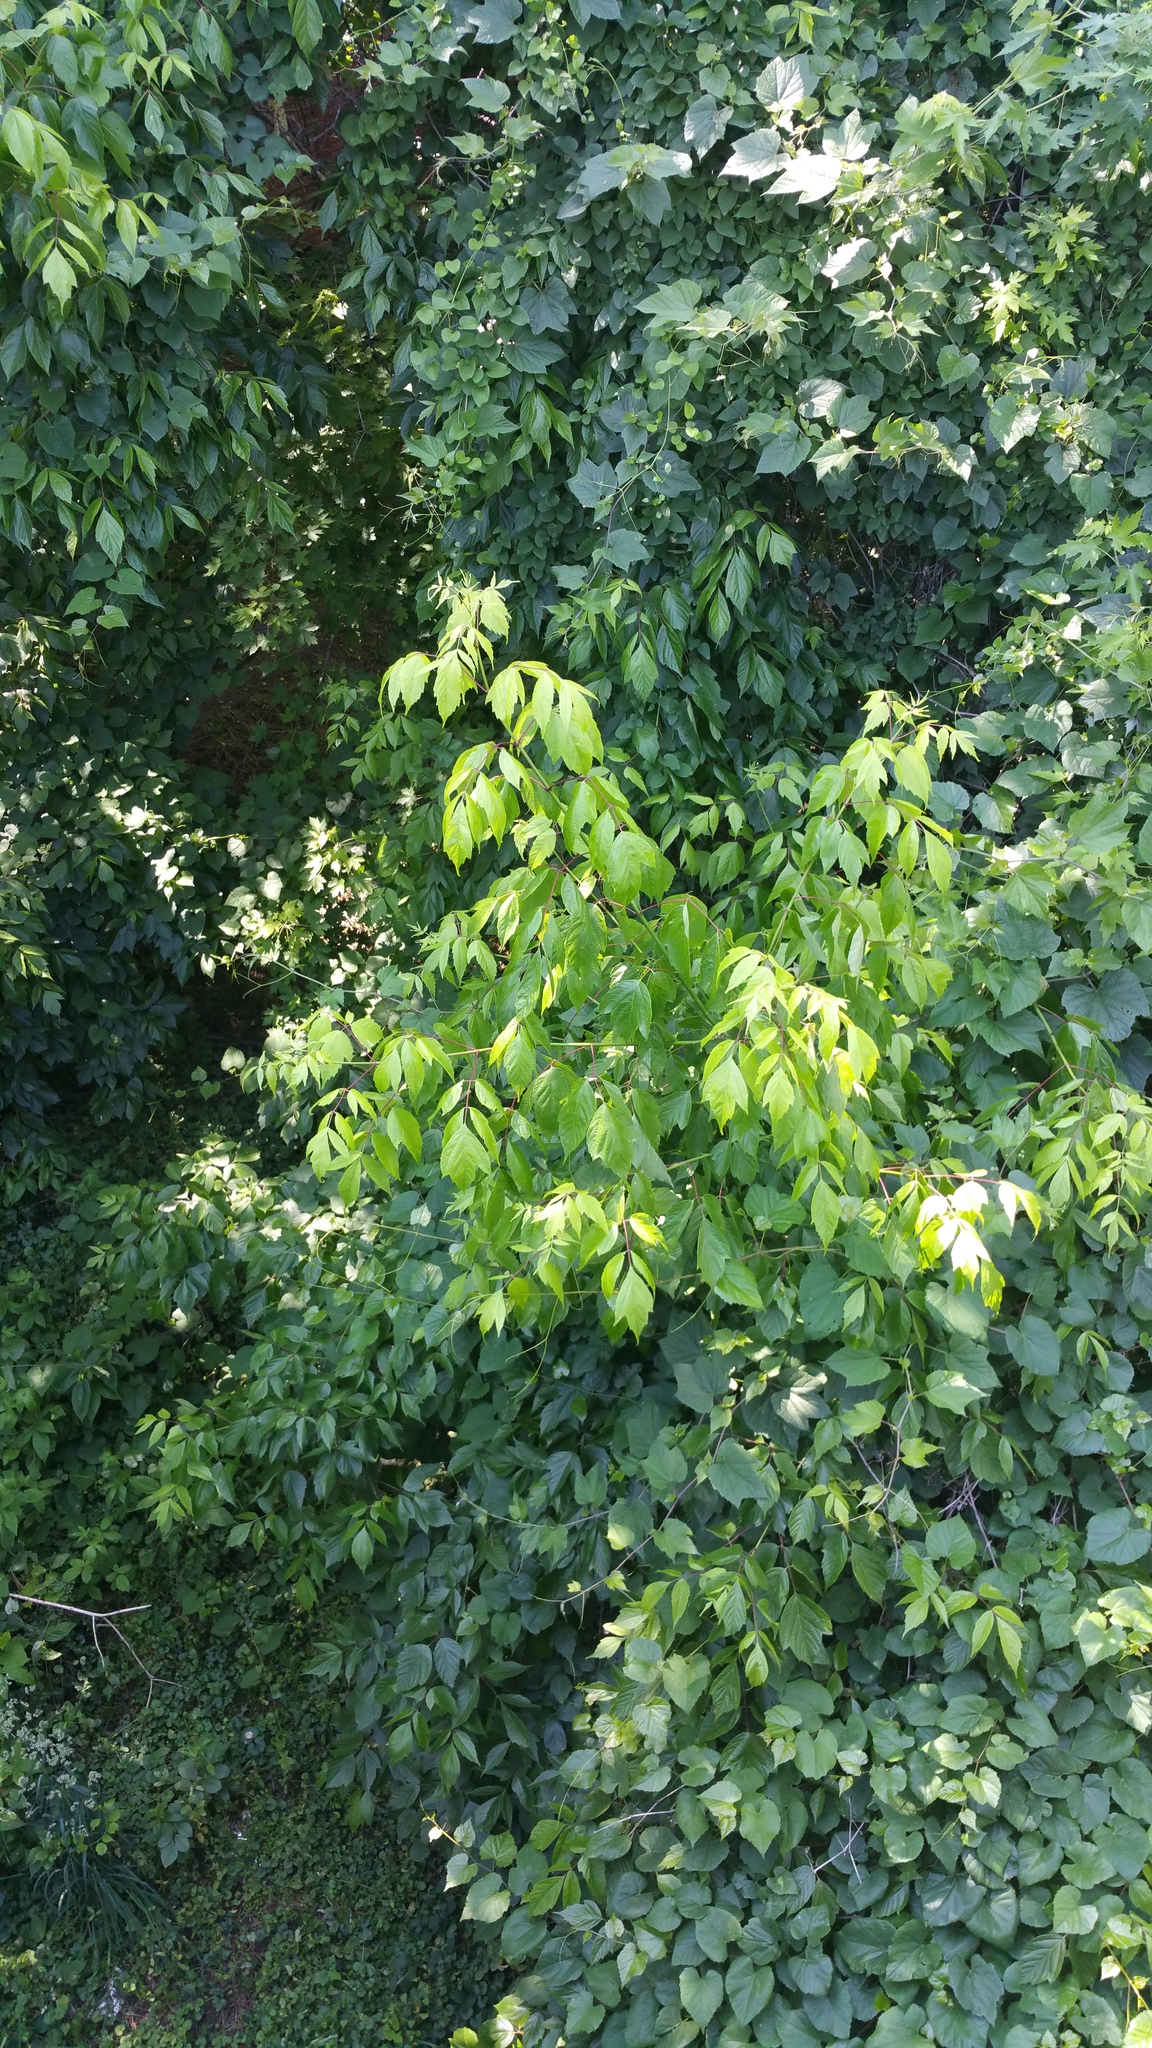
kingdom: Plantae
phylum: Tracheophyta
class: Magnoliopsida
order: Sapindales
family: Sapindaceae
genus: Acer
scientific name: Acer negundo
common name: Ashleaf maple
